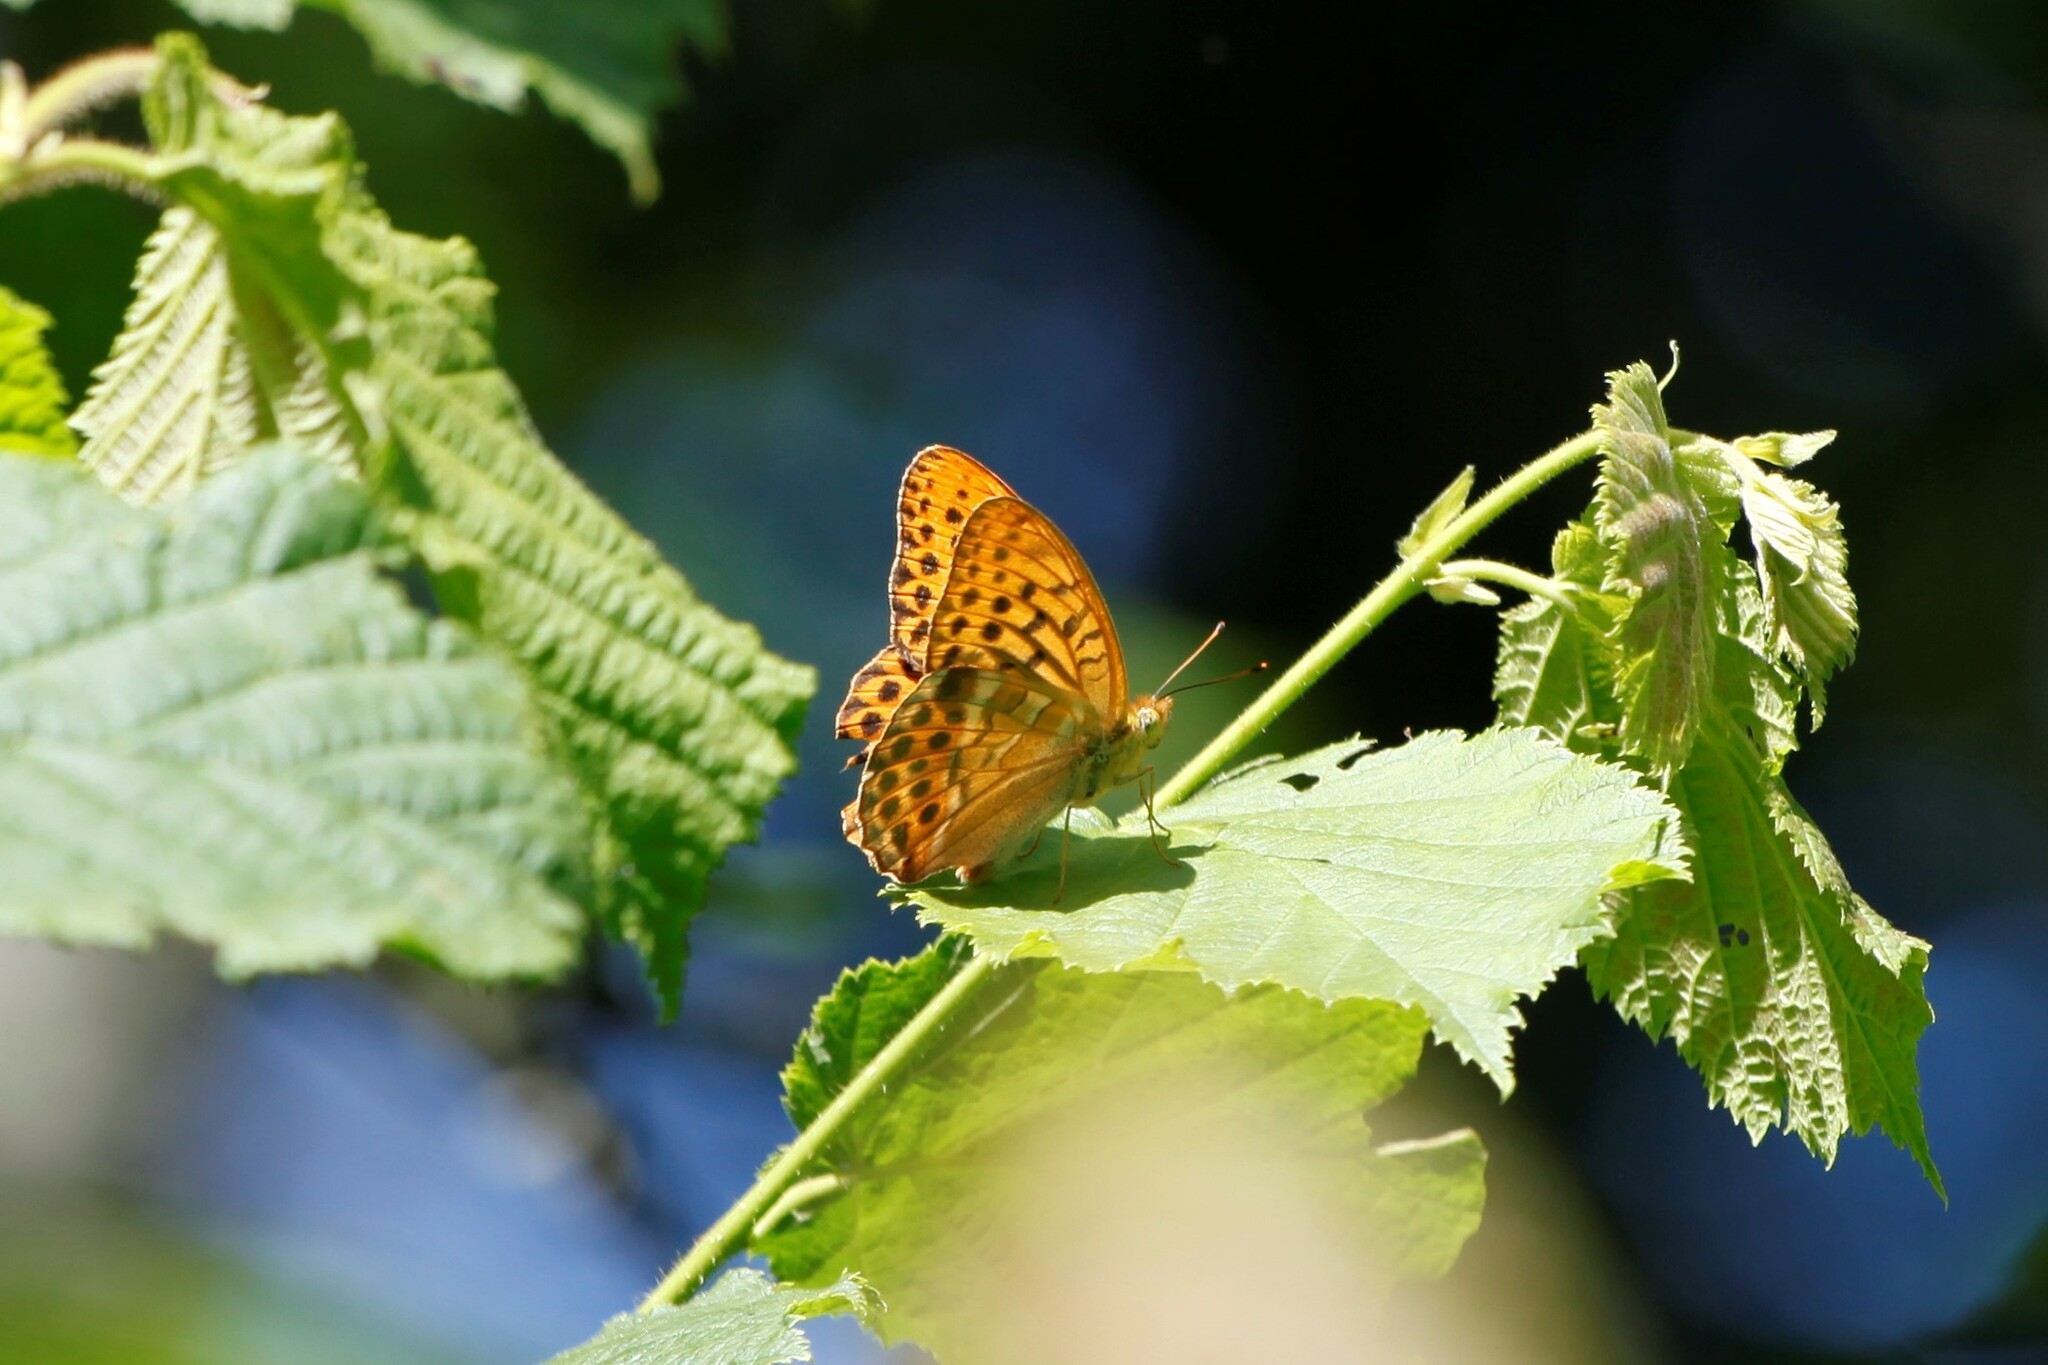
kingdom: Animalia
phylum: Arthropoda
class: Insecta
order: Lepidoptera
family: Nymphalidae
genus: Argynnis
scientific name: Argynnis paphia
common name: Silver-washed fritillary
